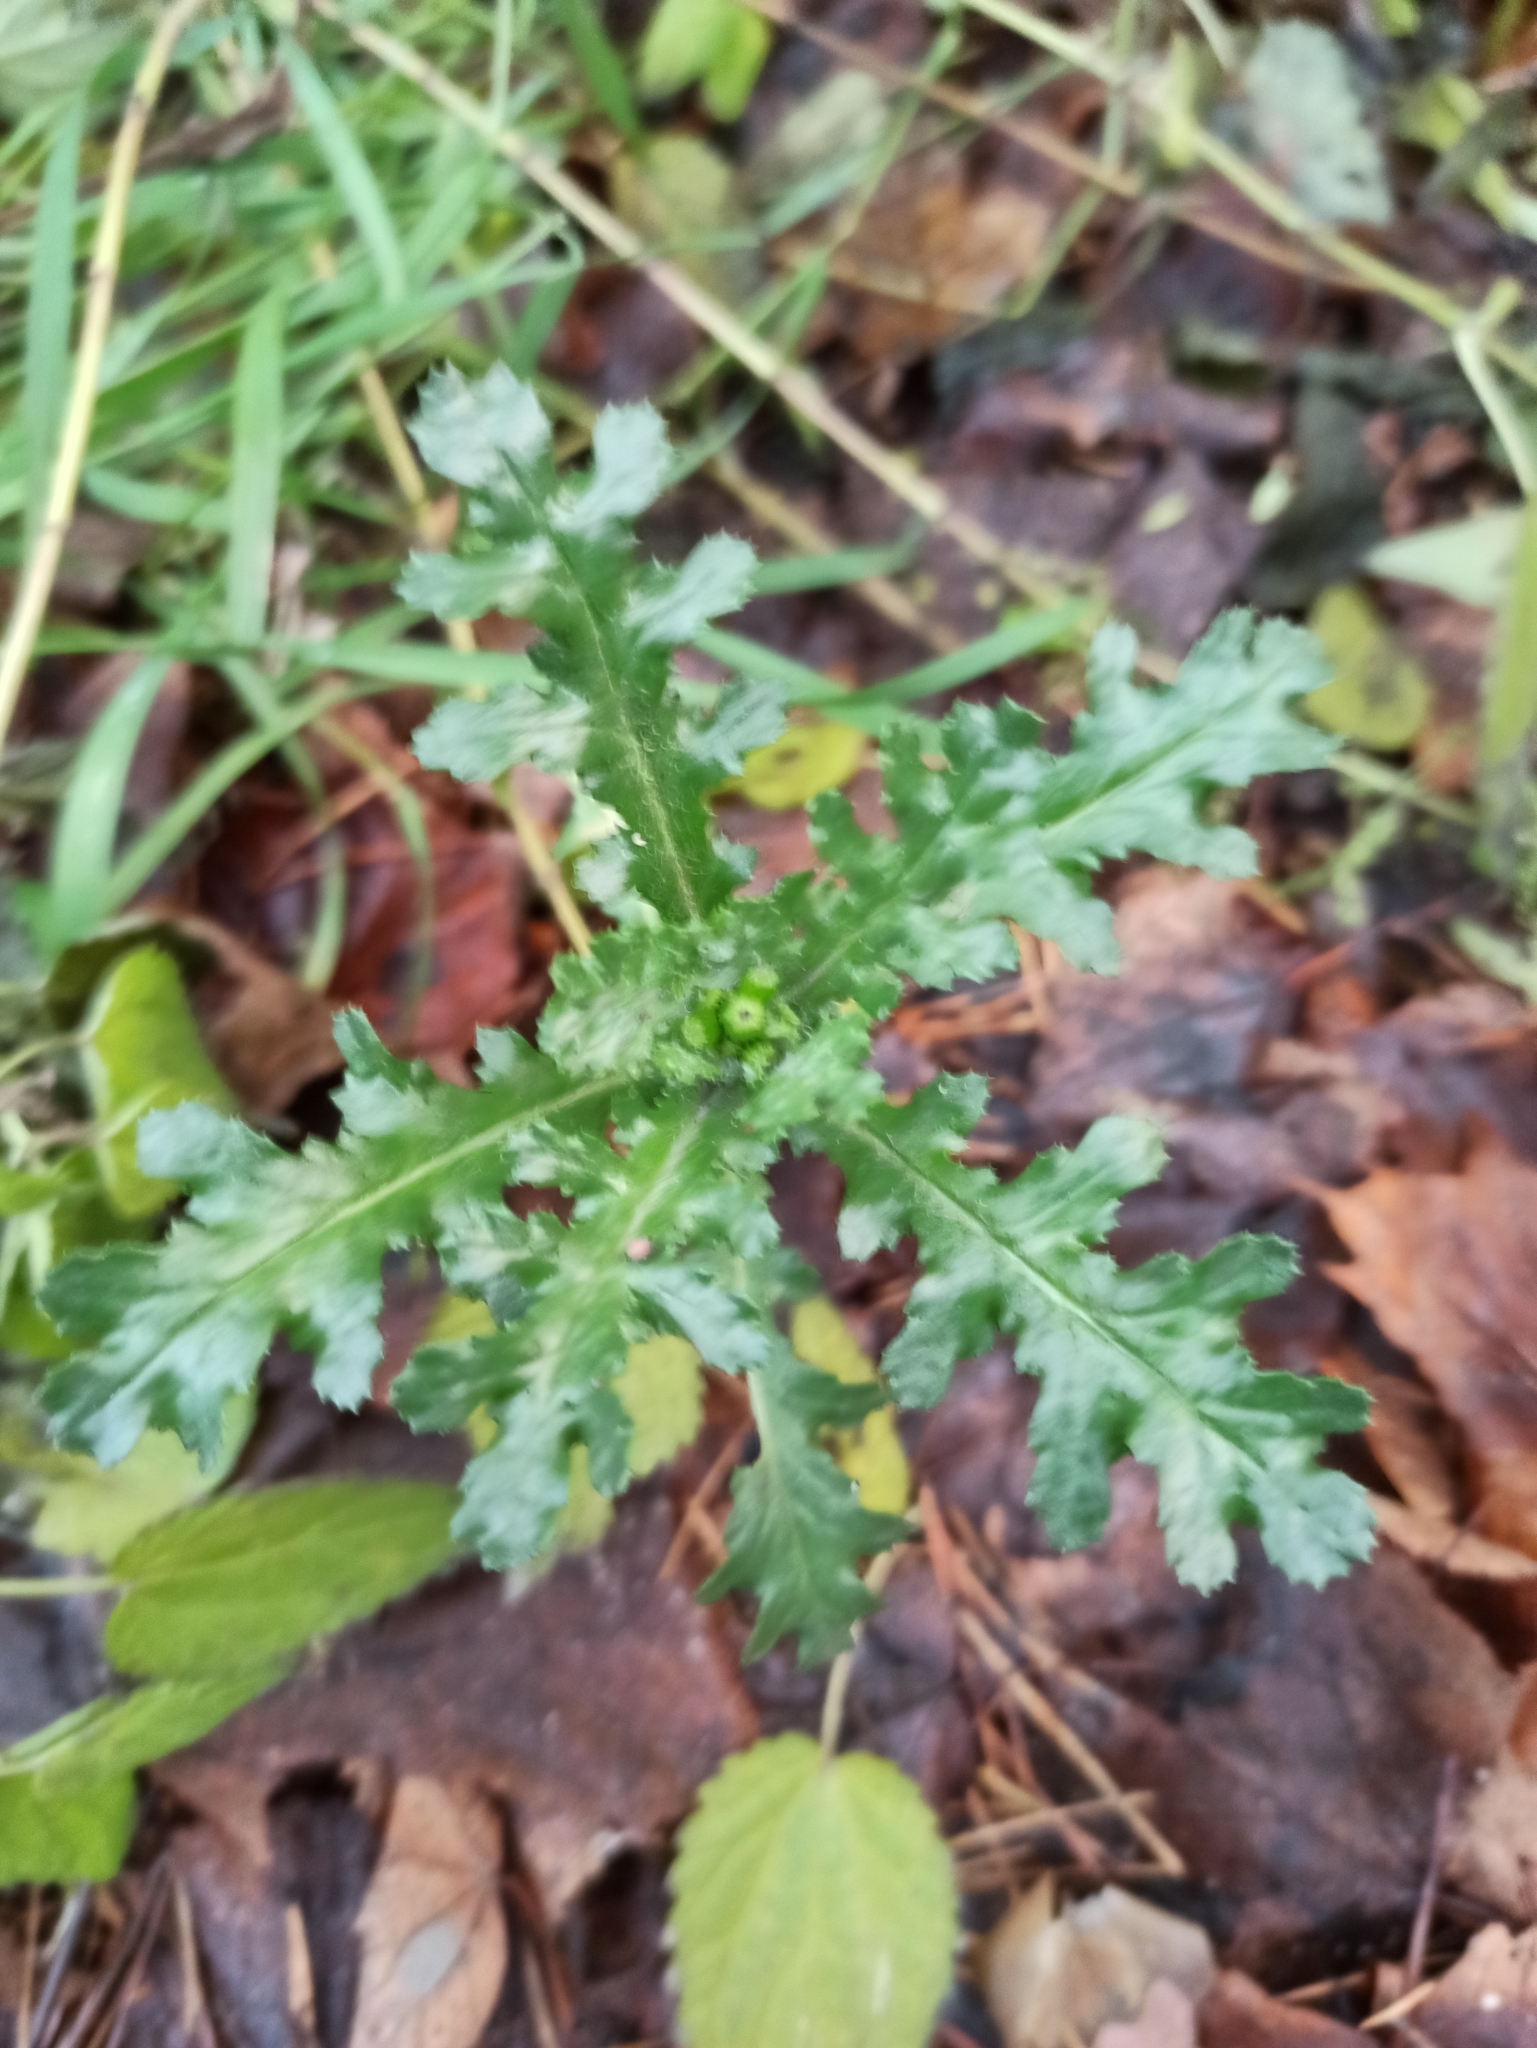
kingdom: Plantae
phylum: Tracheophyta
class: Magnoliopsida
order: Asterales
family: Asteraceae
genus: Senecio
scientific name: Senecio vulgaris
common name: Old-man-in-the-spring
